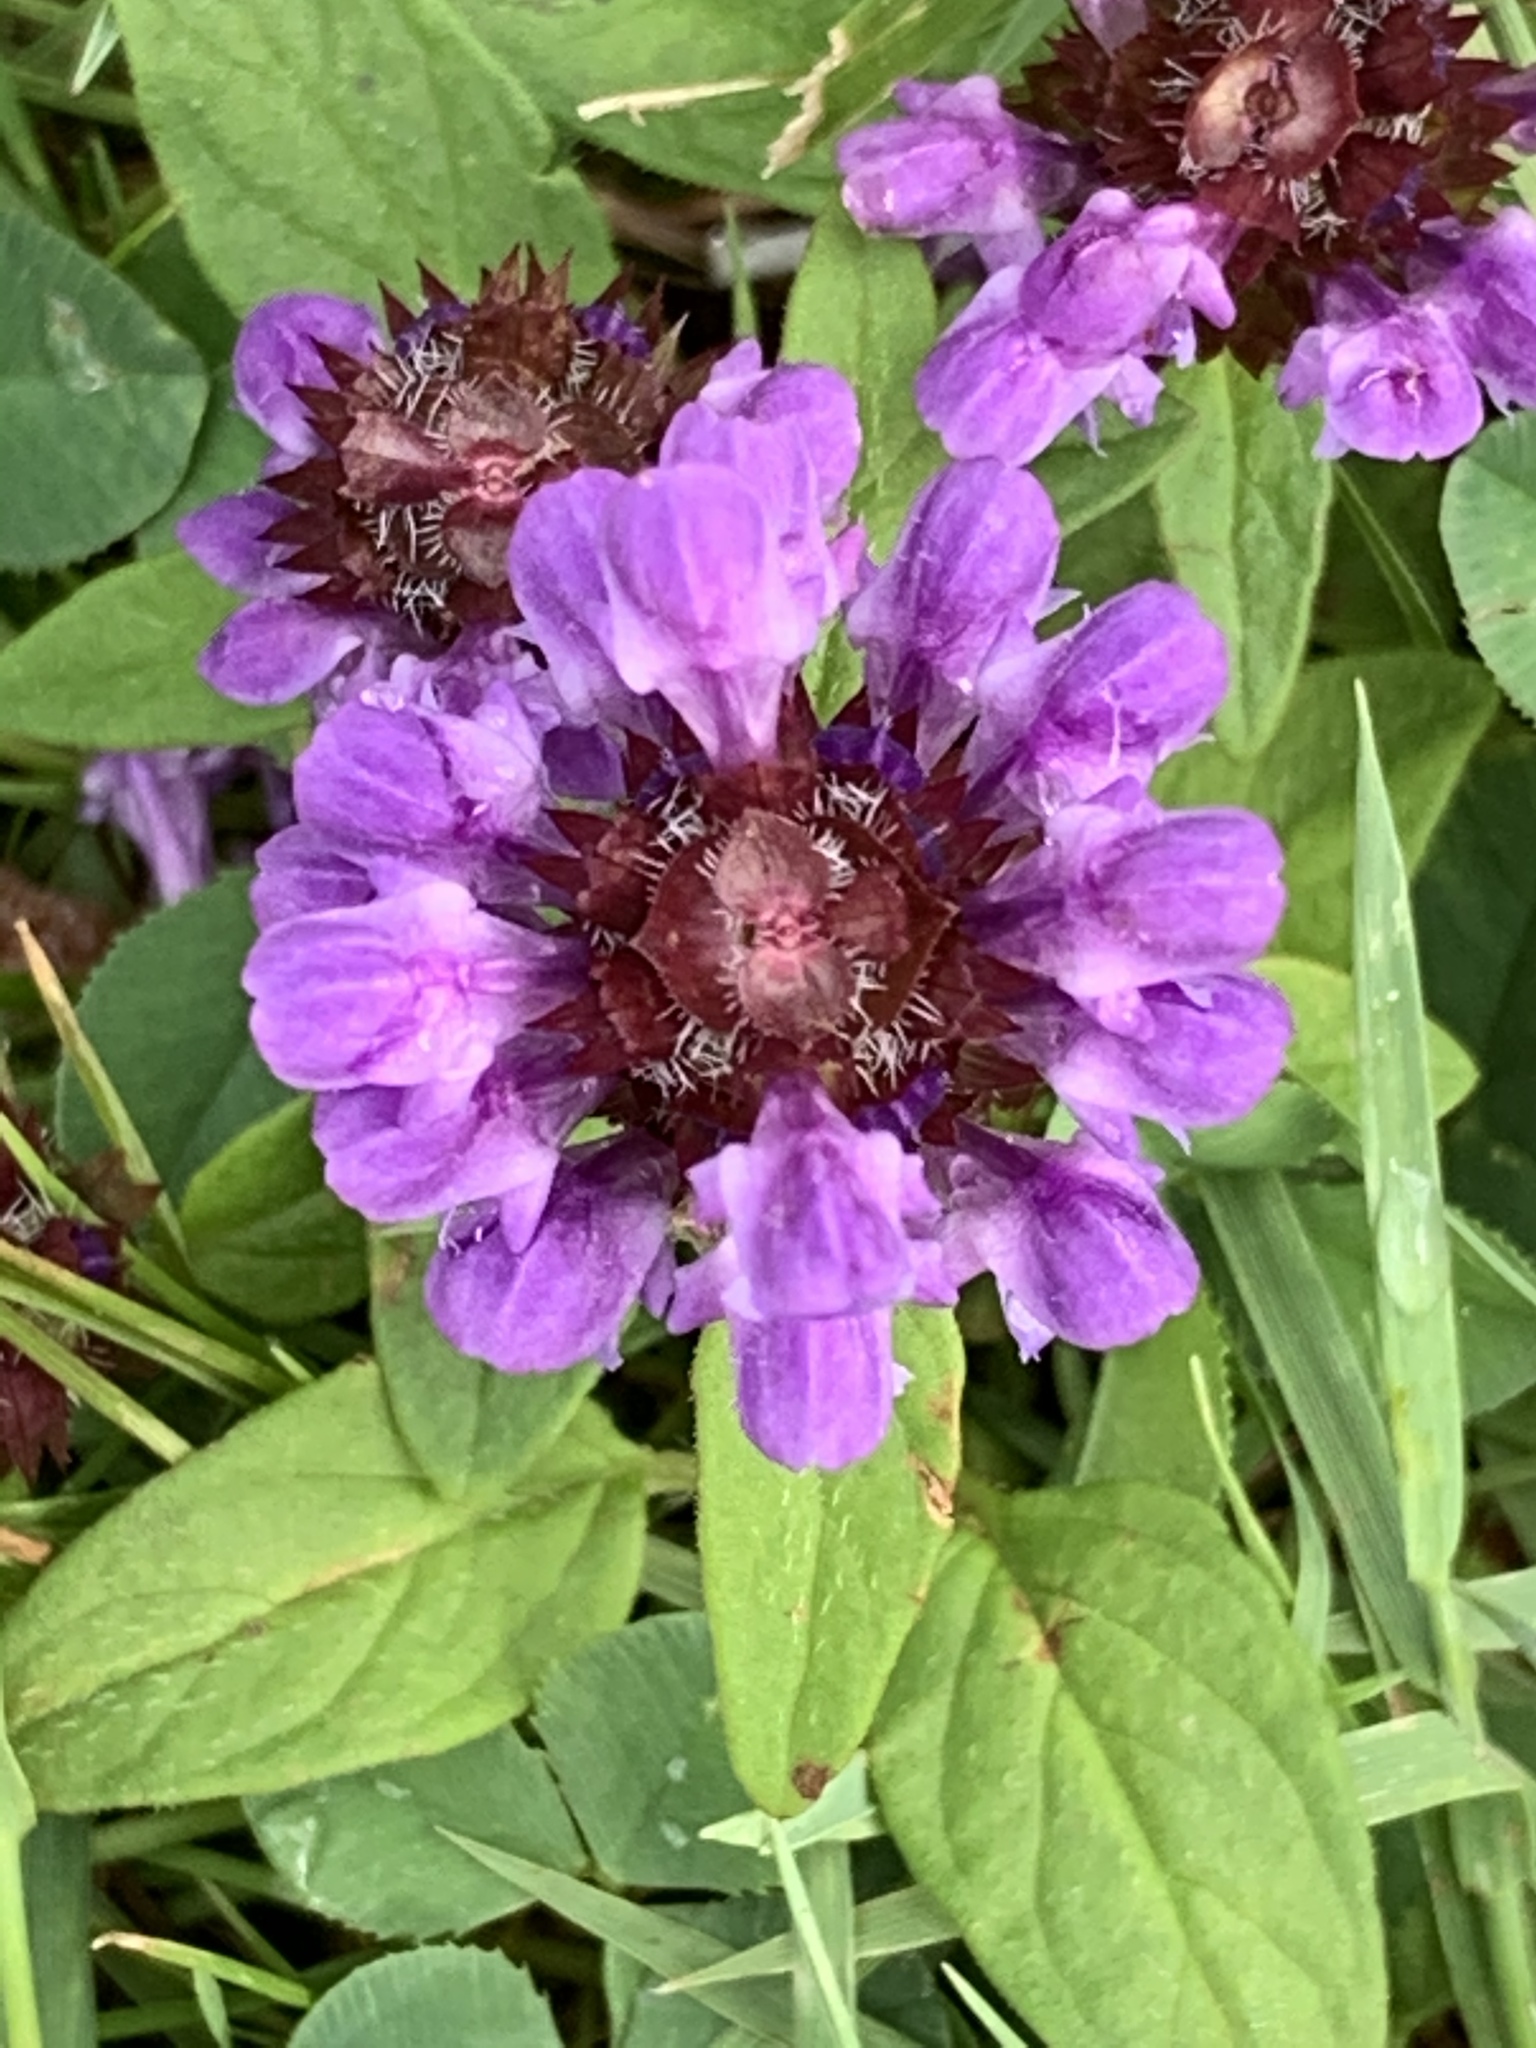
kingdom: Plantae
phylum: Tracheophyta
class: Magnoliopsida
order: Lamiales
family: Lamiaceae
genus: Prunella
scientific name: Prunella vulgaris
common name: Heal-all
